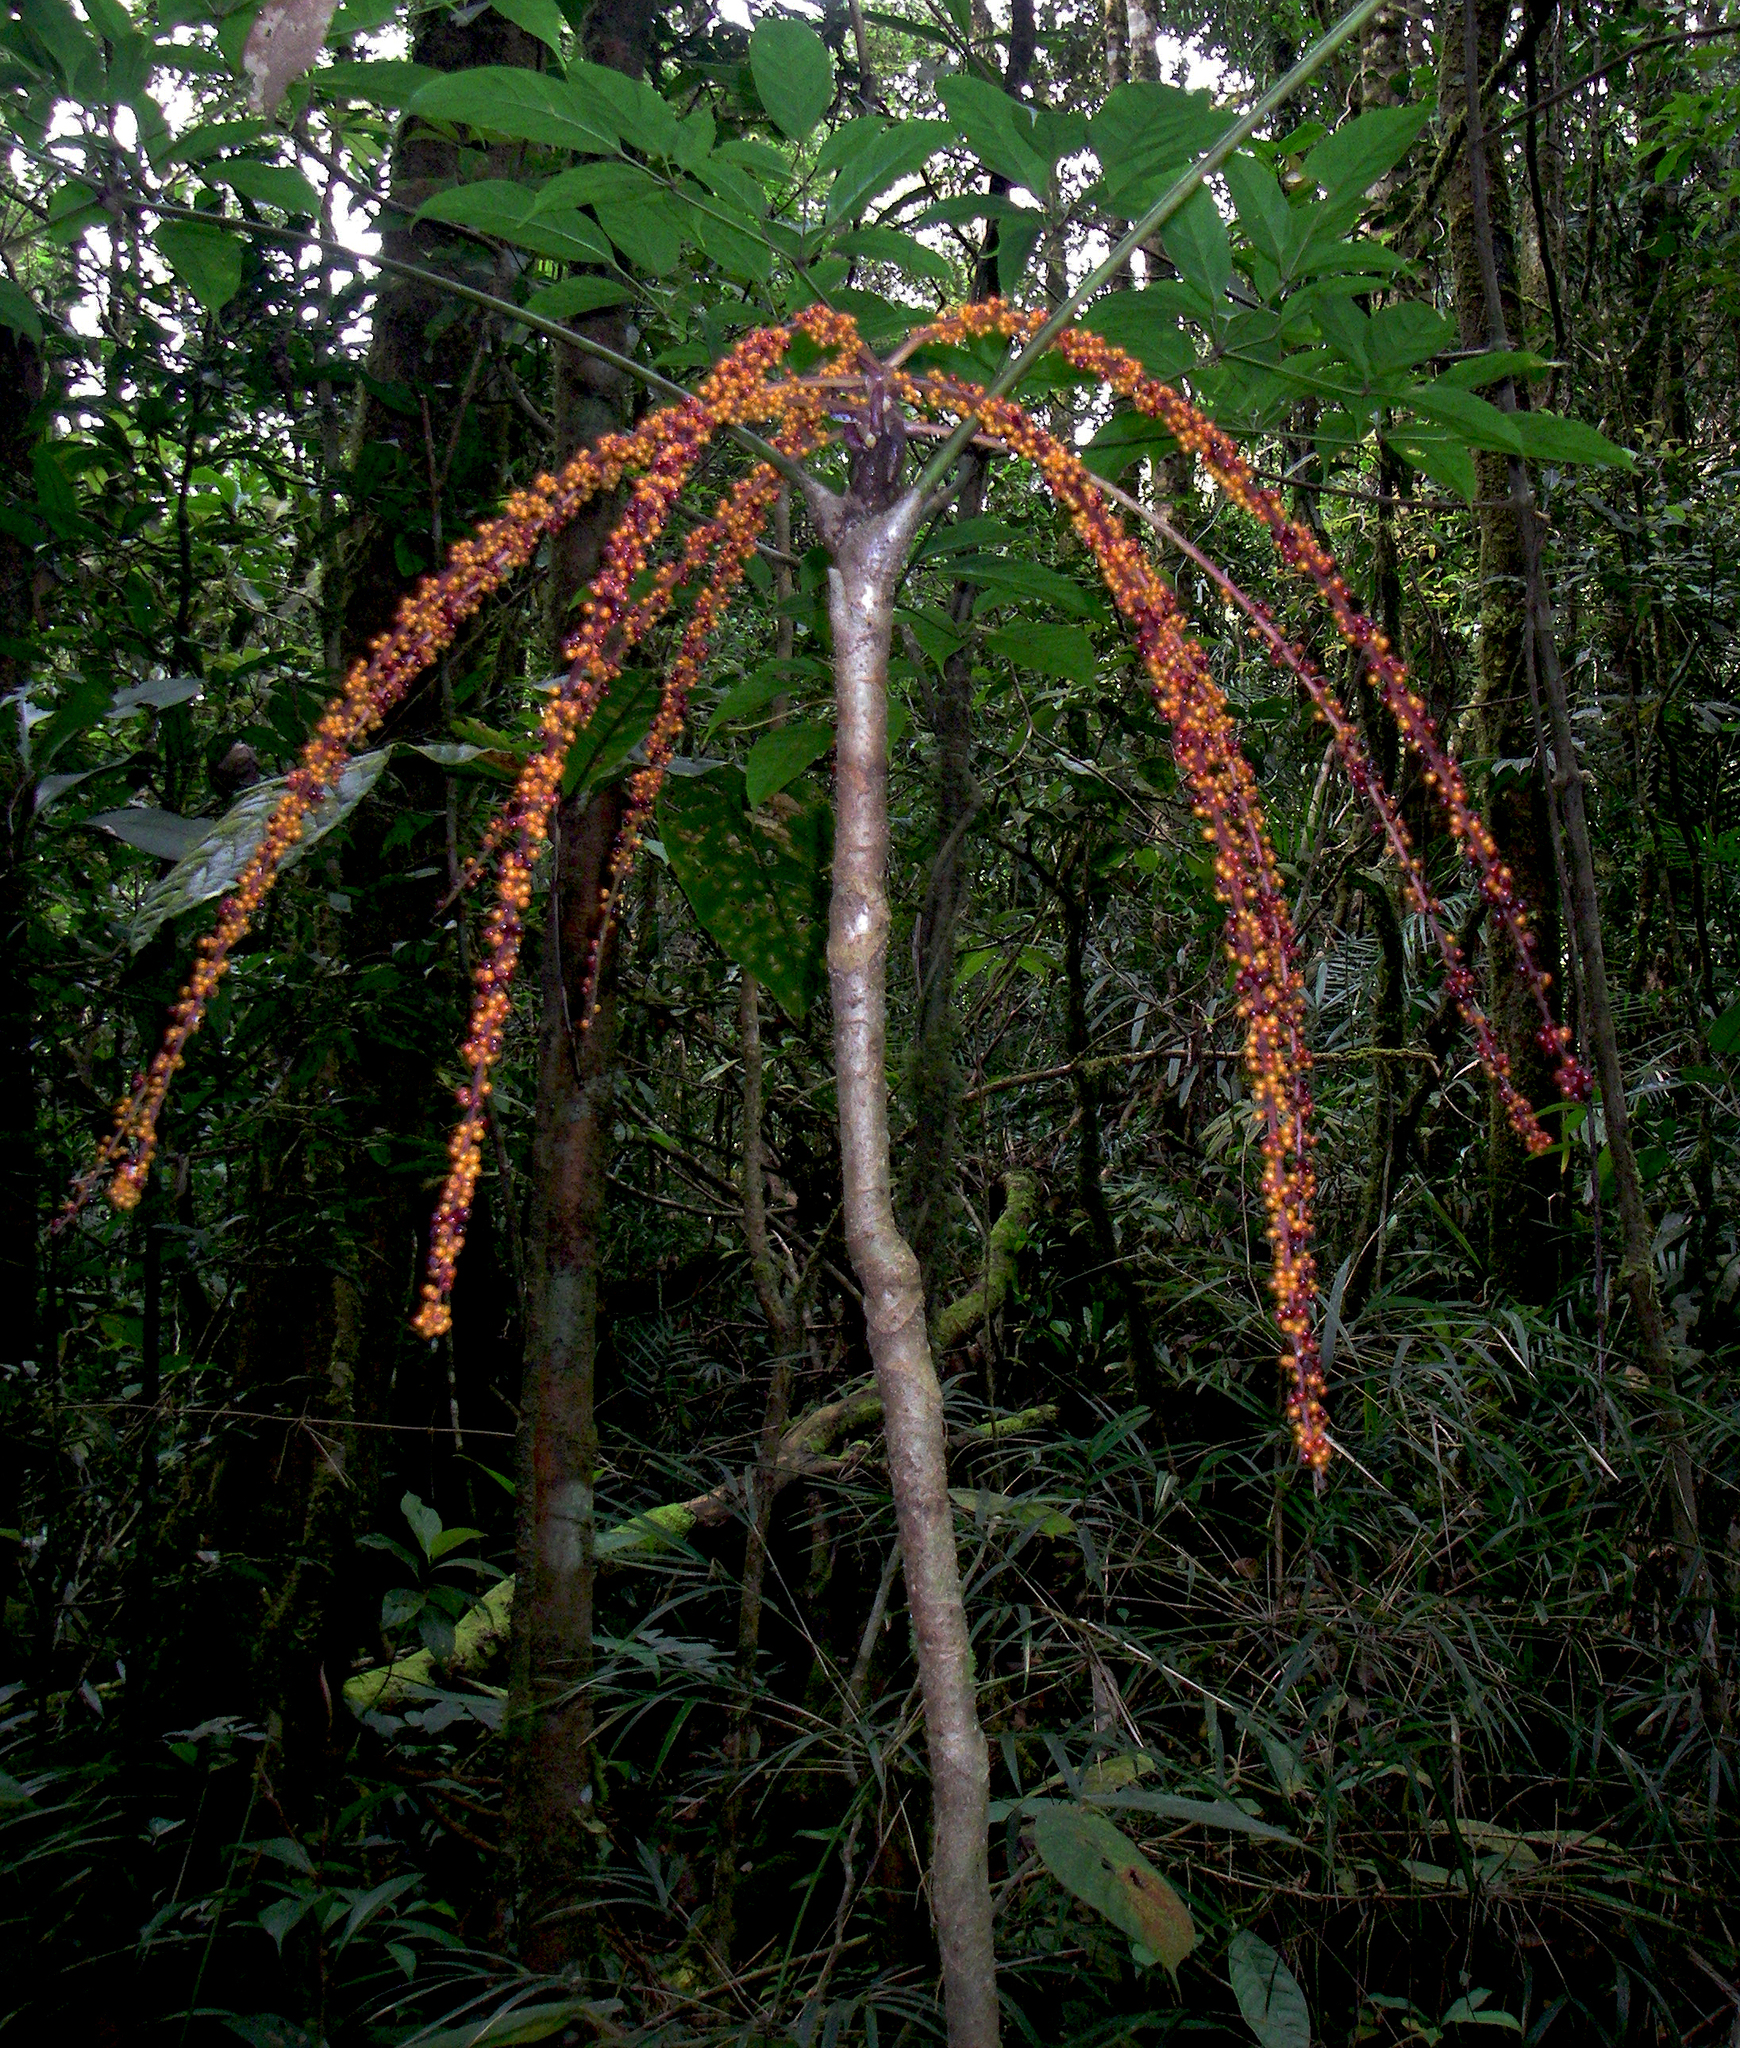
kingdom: Plantae
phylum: Tracheophyta
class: Magnoliopsida
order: Apiales
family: Araliaceae
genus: Heptapleurum
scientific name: Heptapleurum bipalmatifolium
